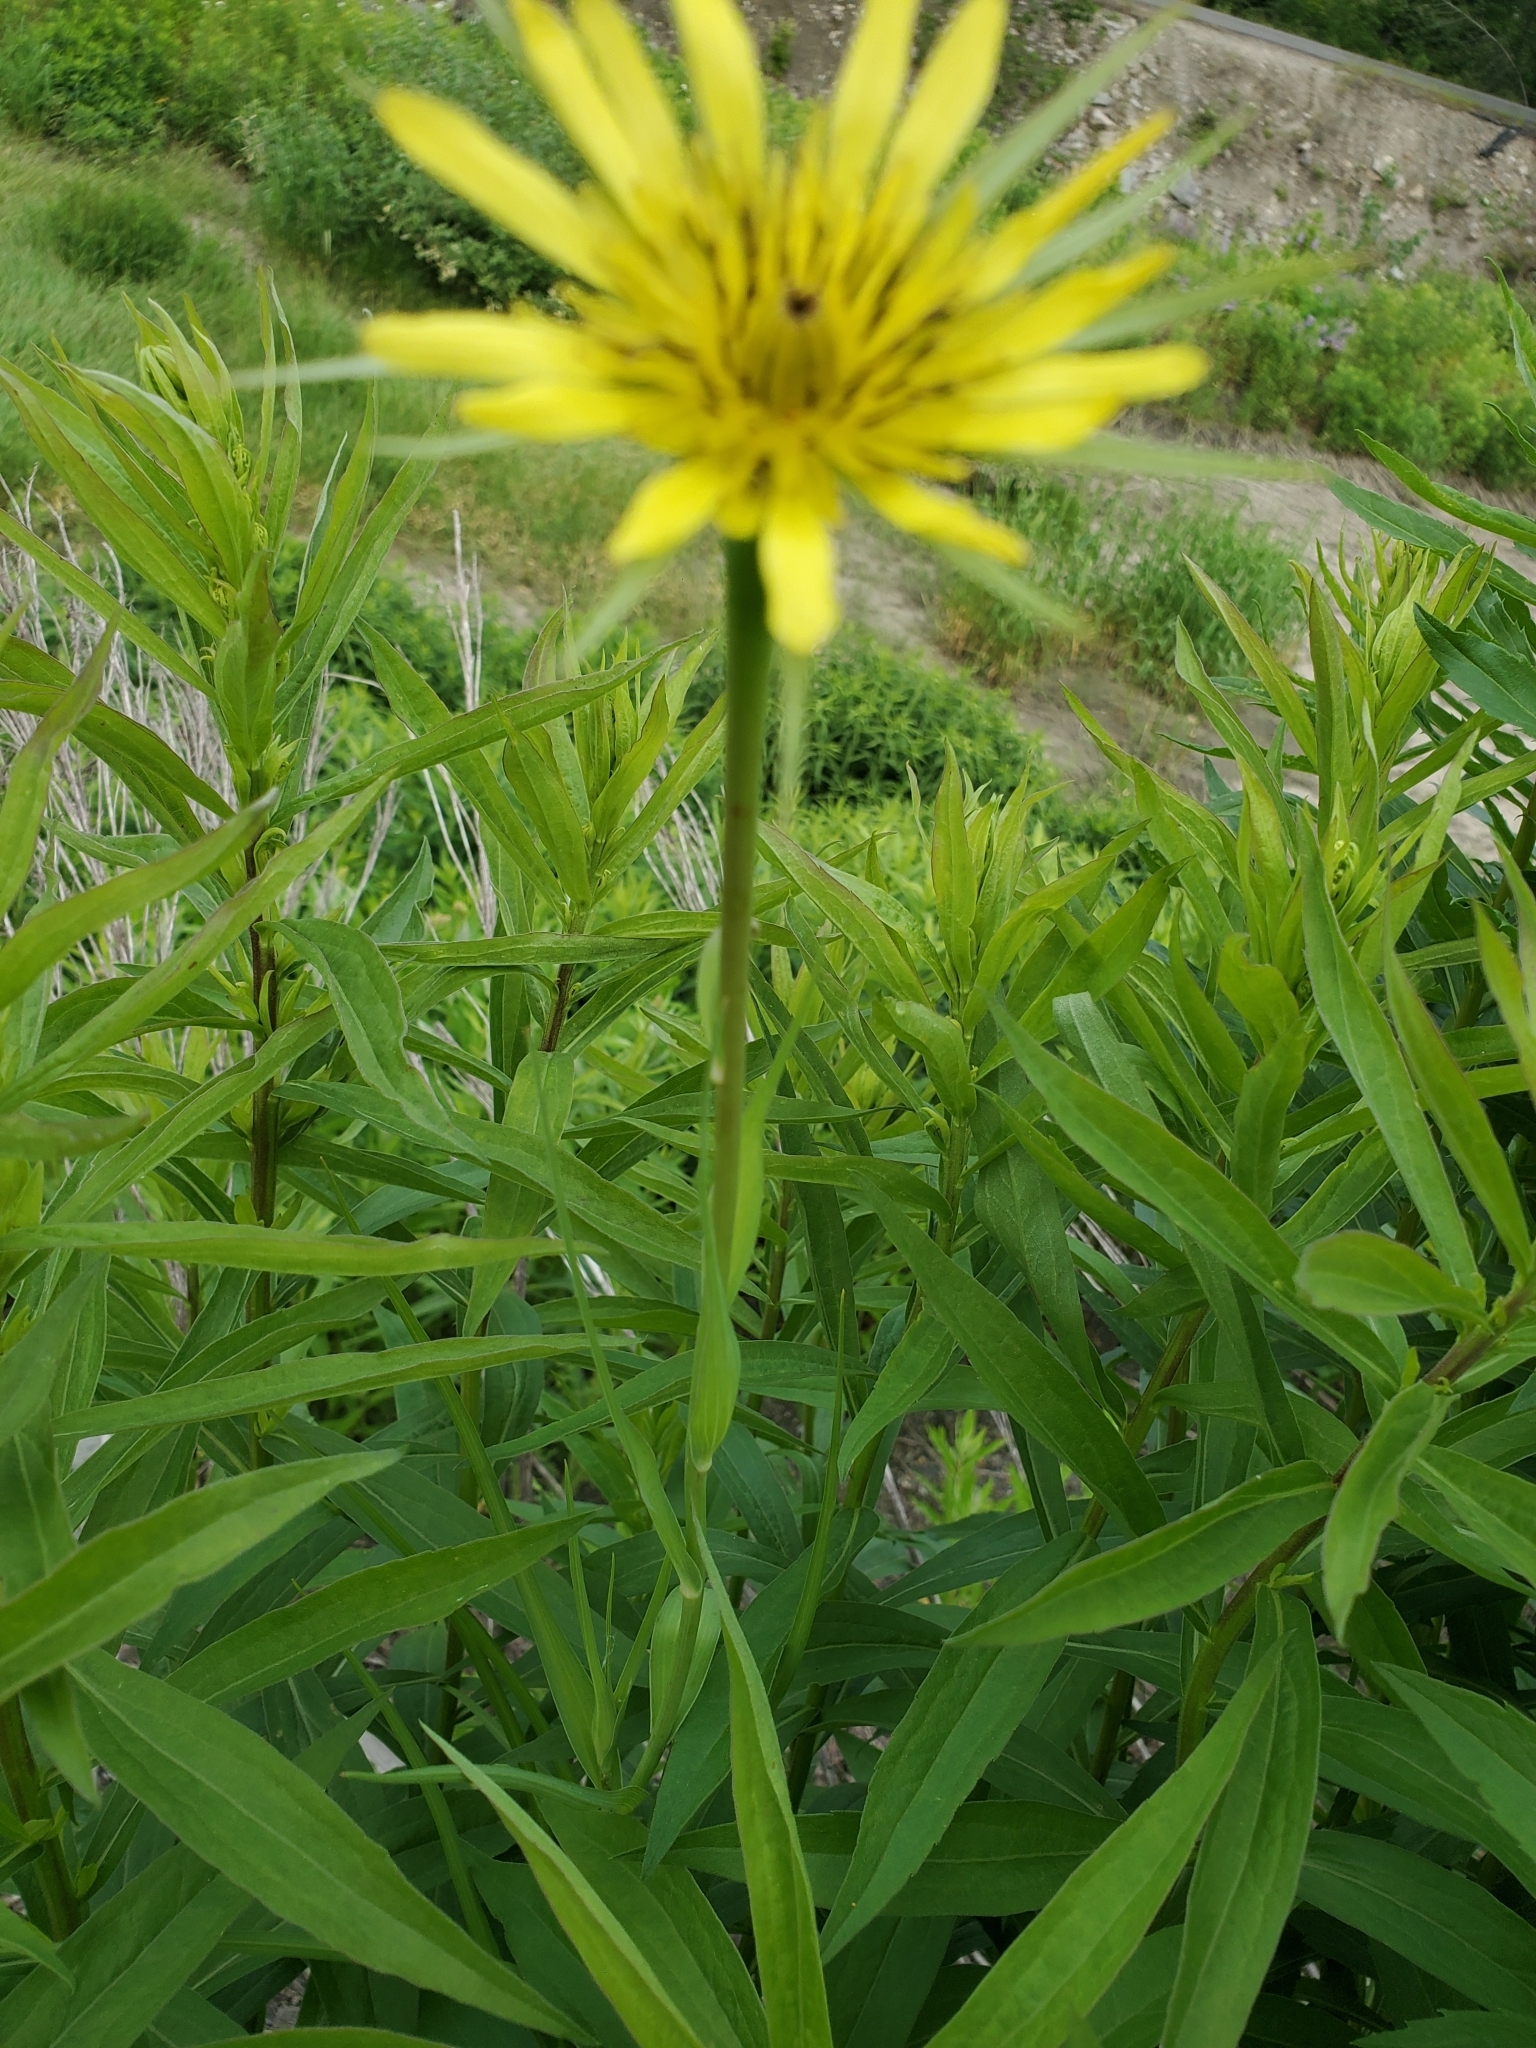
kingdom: Plantae
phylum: Tracheophyta
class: Magnoliopsida
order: Asterales
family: Asteraceae
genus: Tragopogon
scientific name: Tragopogon dubius
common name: Yellow salsify
